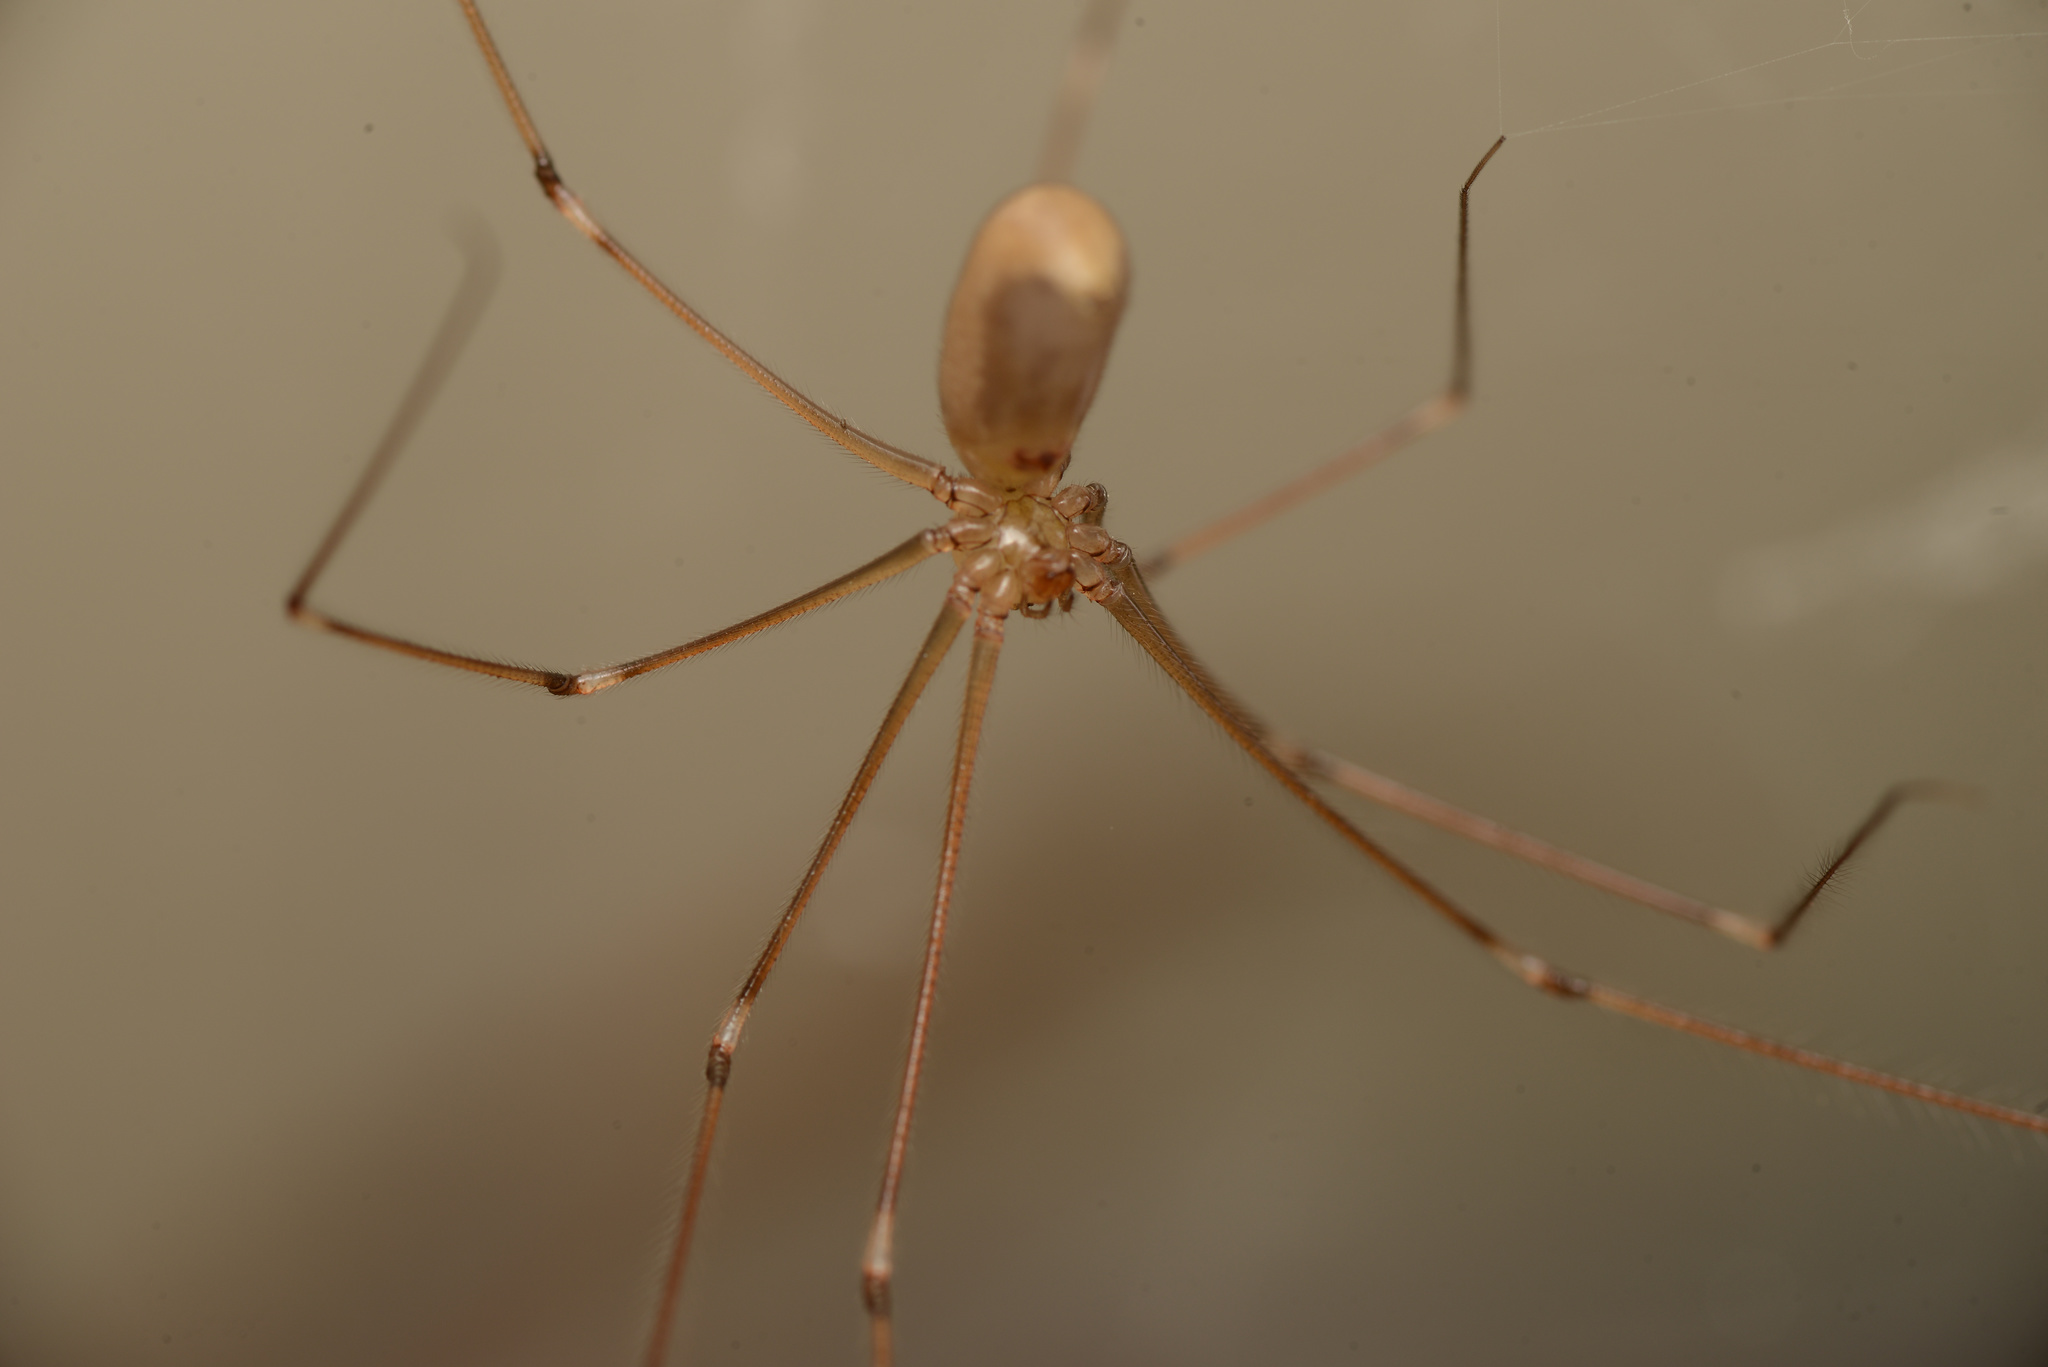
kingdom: Animalia
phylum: Arthropoda
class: Arachnida
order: Araneae
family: Pholcidae
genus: Pholcus
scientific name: Pholcus phalangioides
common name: Longbodied cellar spider
